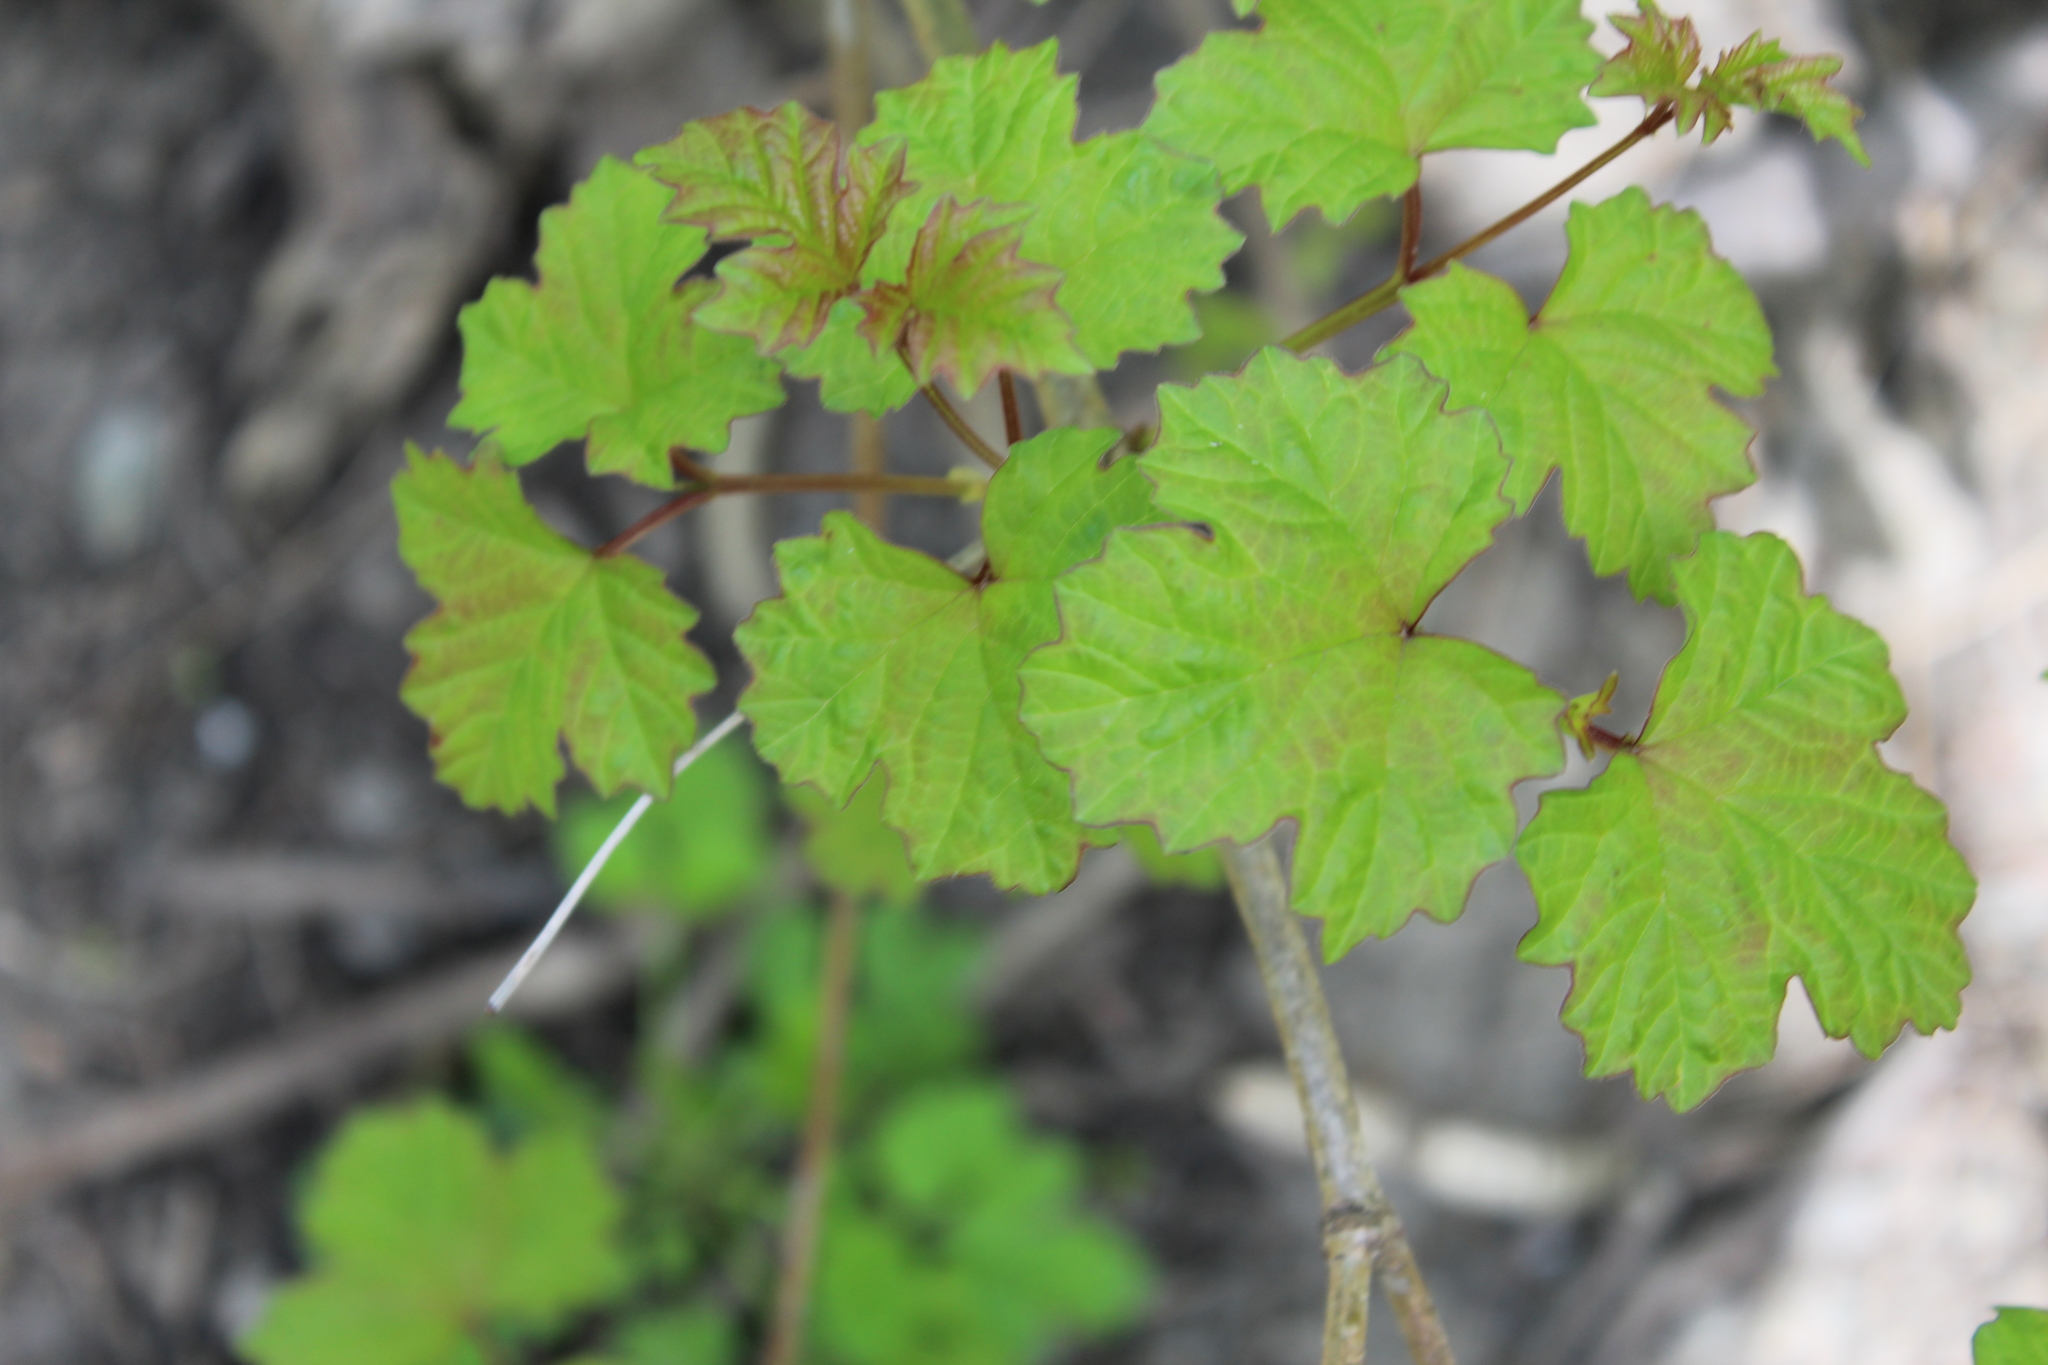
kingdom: Plantae
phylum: Tracheophyta
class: Magnoliopsida
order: Dipsacales
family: Viburnaceae
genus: Viburnum
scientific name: Viburnum opulus
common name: Guelder-rose
